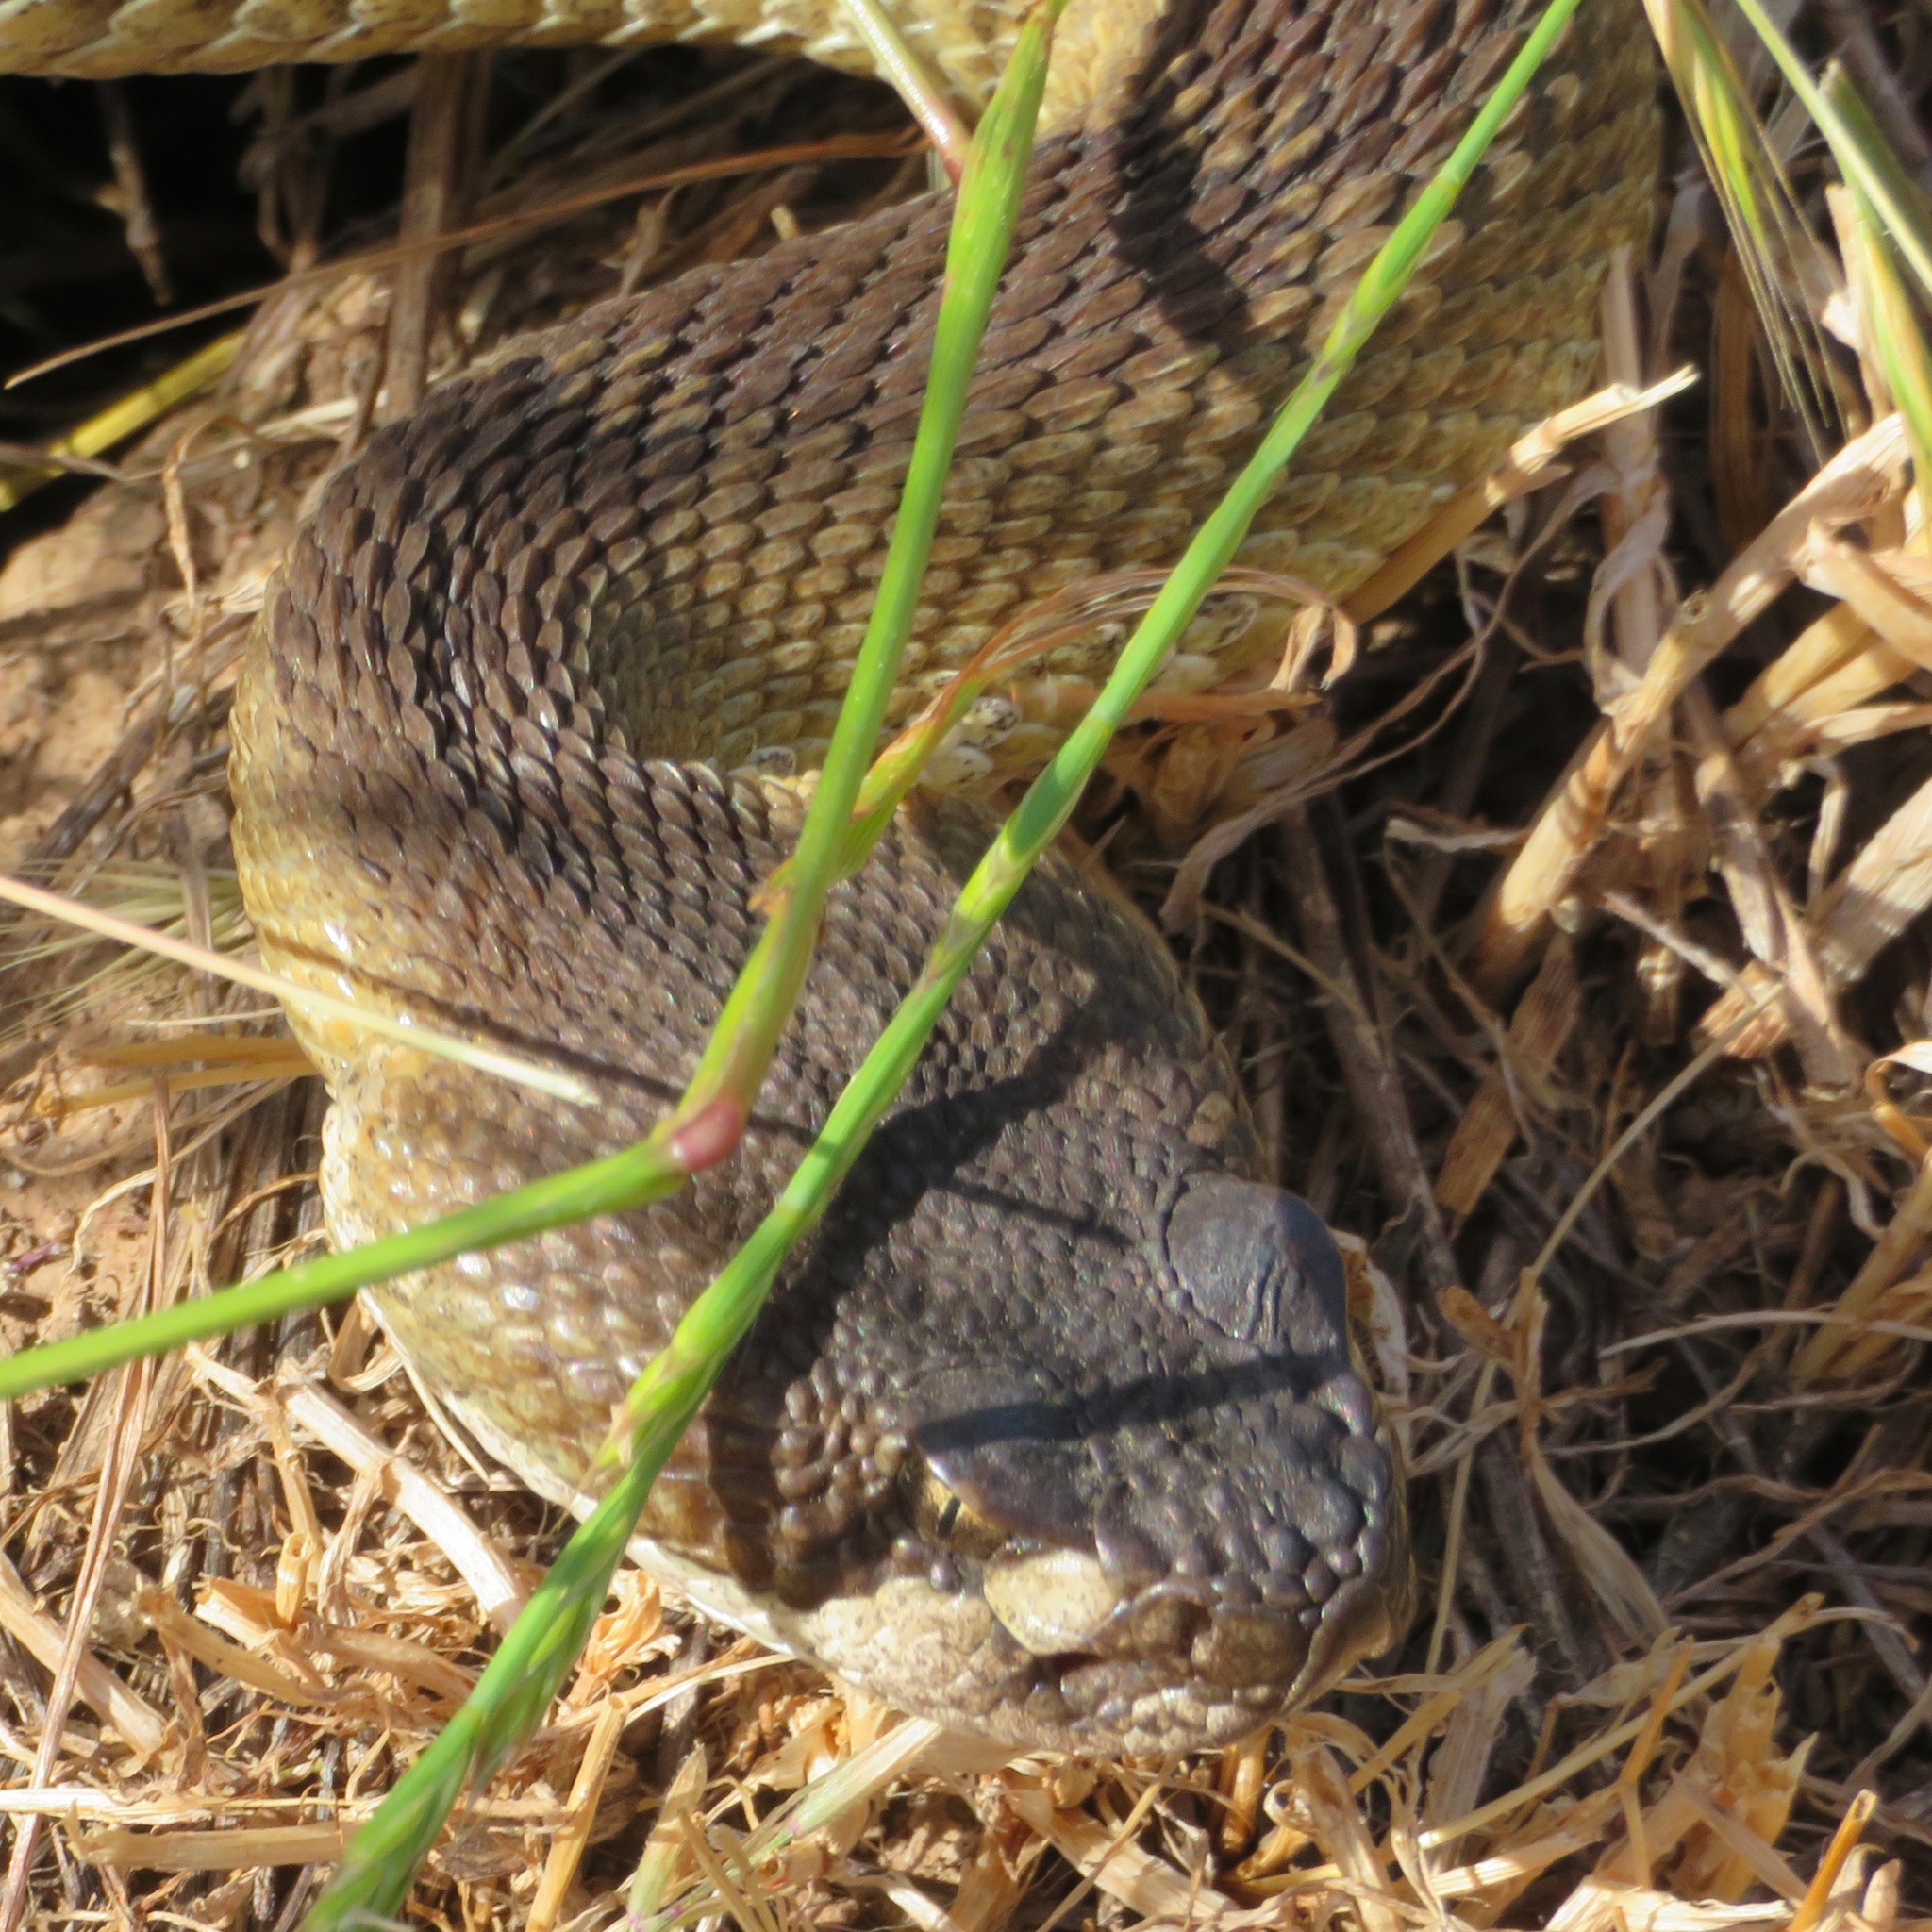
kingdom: Animalia
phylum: Chordata
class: Squamata
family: Viperidae
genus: Crotalus
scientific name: Crotalus oreganus
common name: Abyssus
